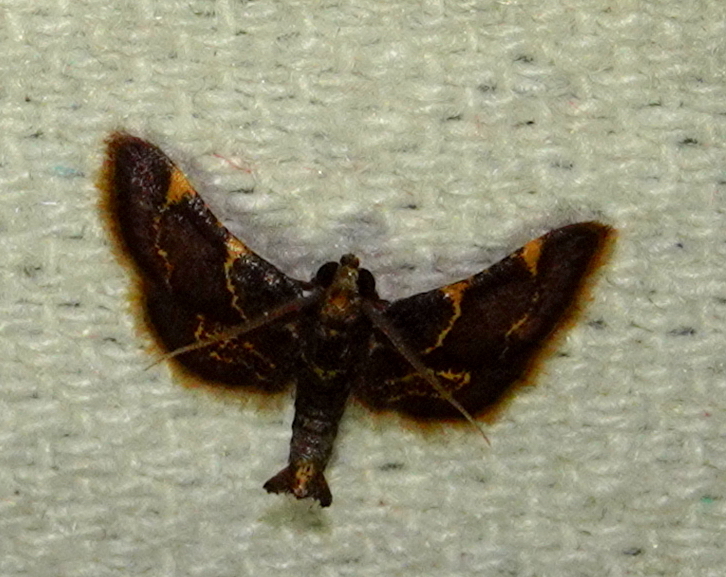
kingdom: Animalia
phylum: Arthropoda
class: Insecta
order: Lepidoptera
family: Pyralidae
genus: Hypsopygia
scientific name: Hypsopygia pelasgalis
